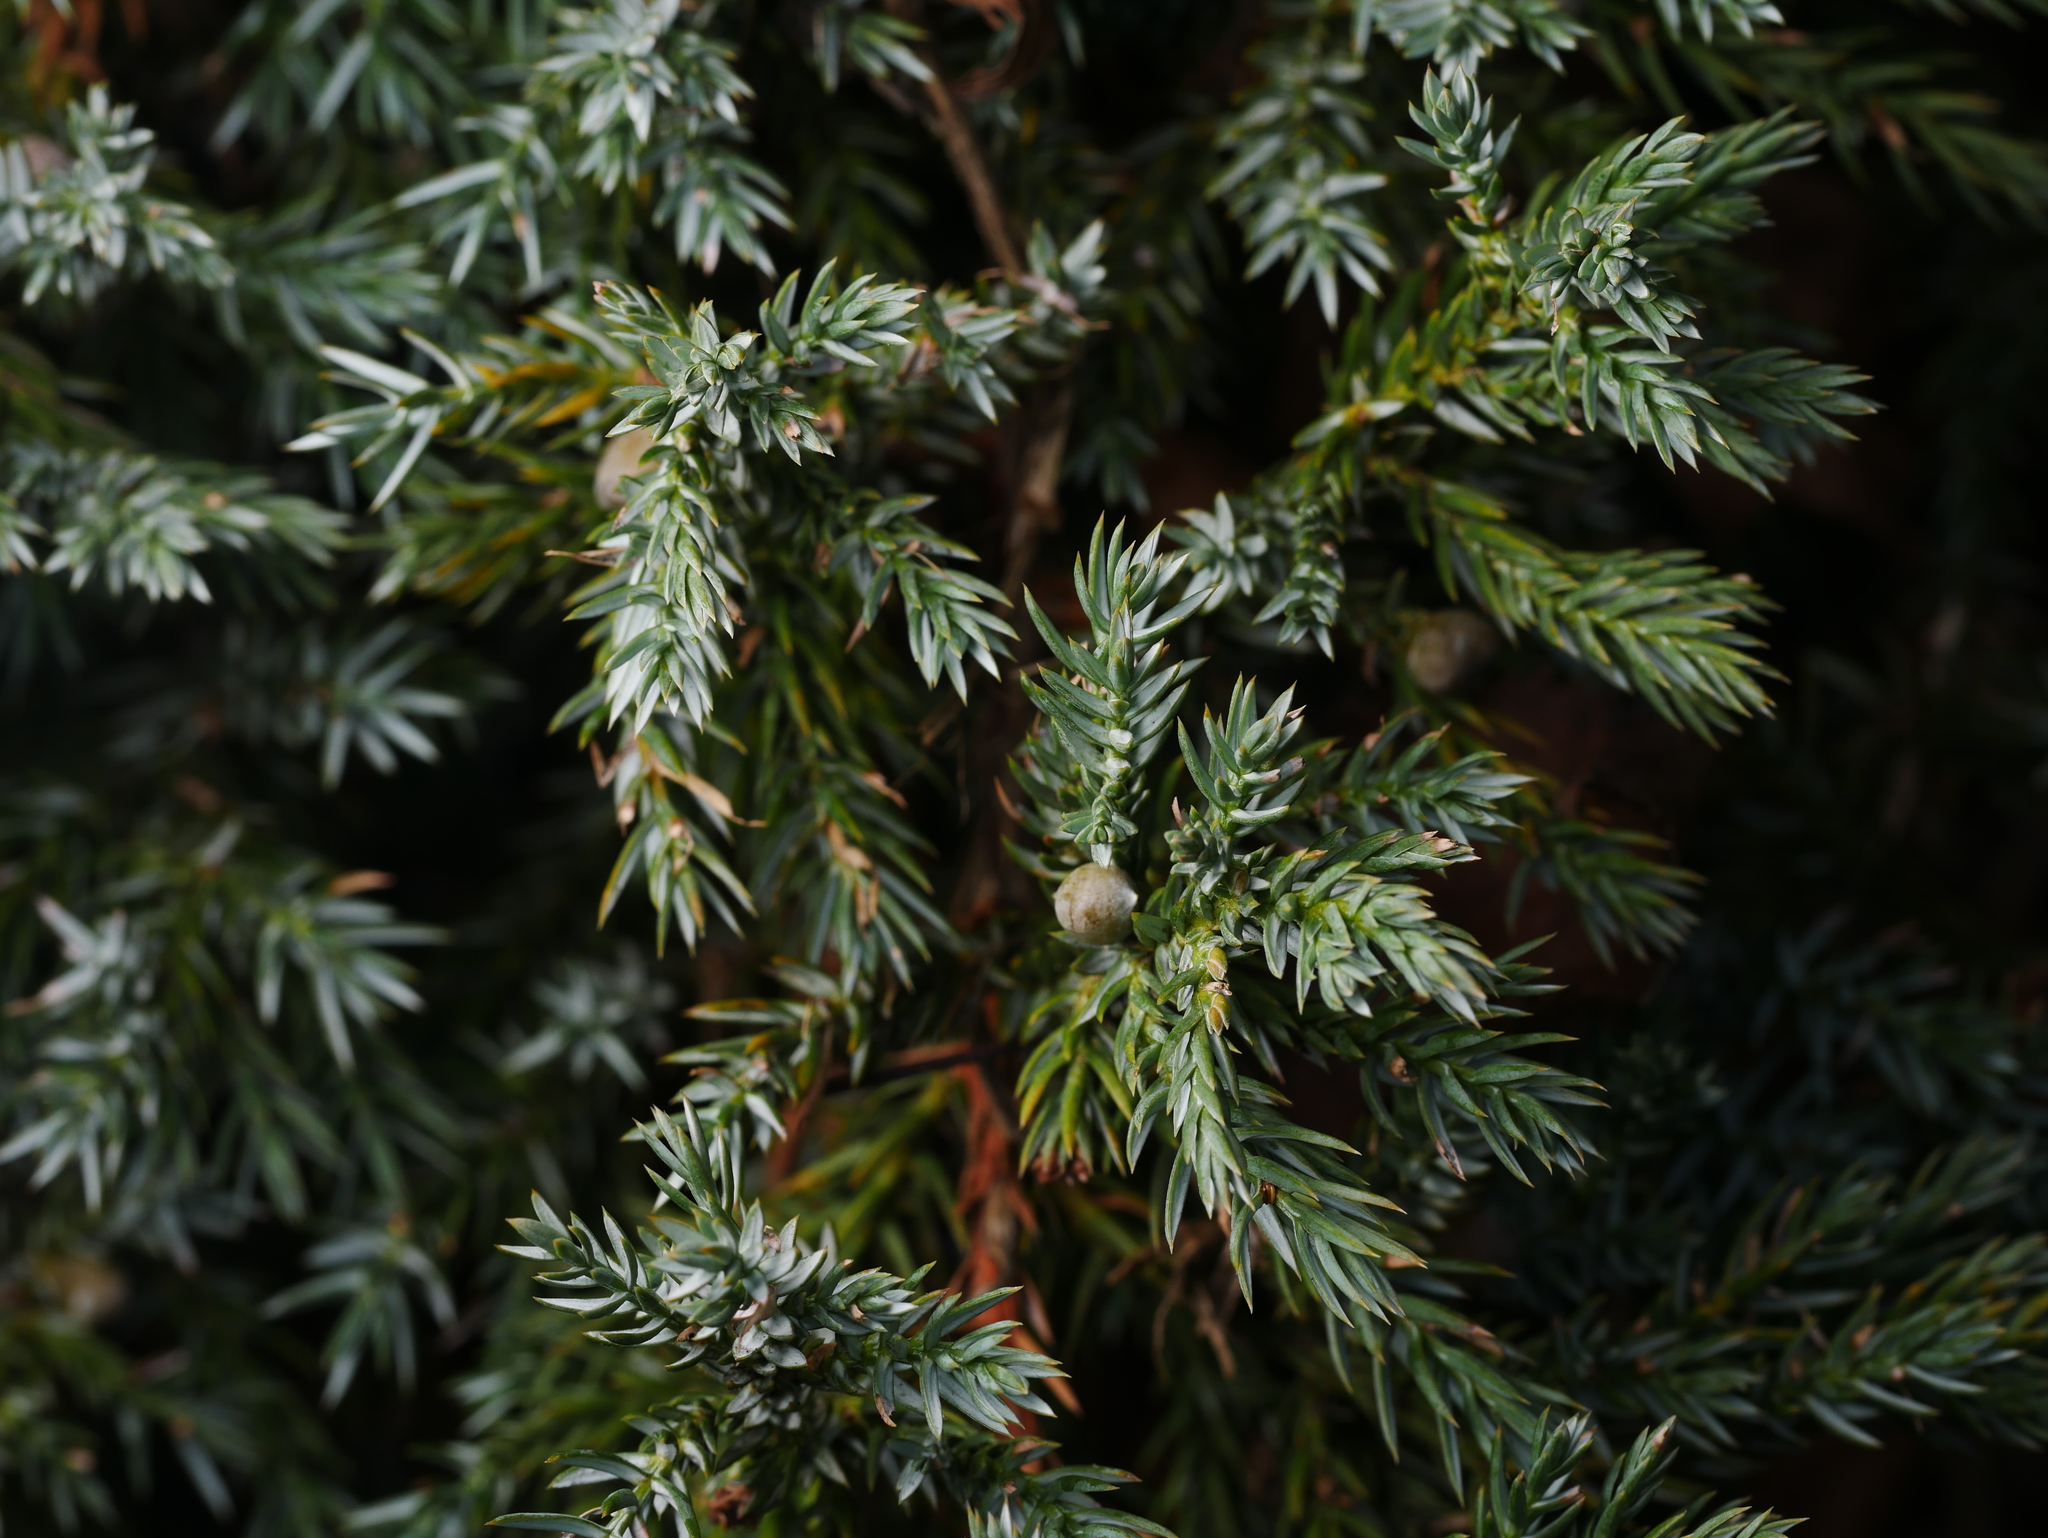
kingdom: Plantae
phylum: Tracheophyta
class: Pinopsida
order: Pinales
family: Cupressaceae
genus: Juniperus
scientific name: Juniperus communis
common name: Common juniper
